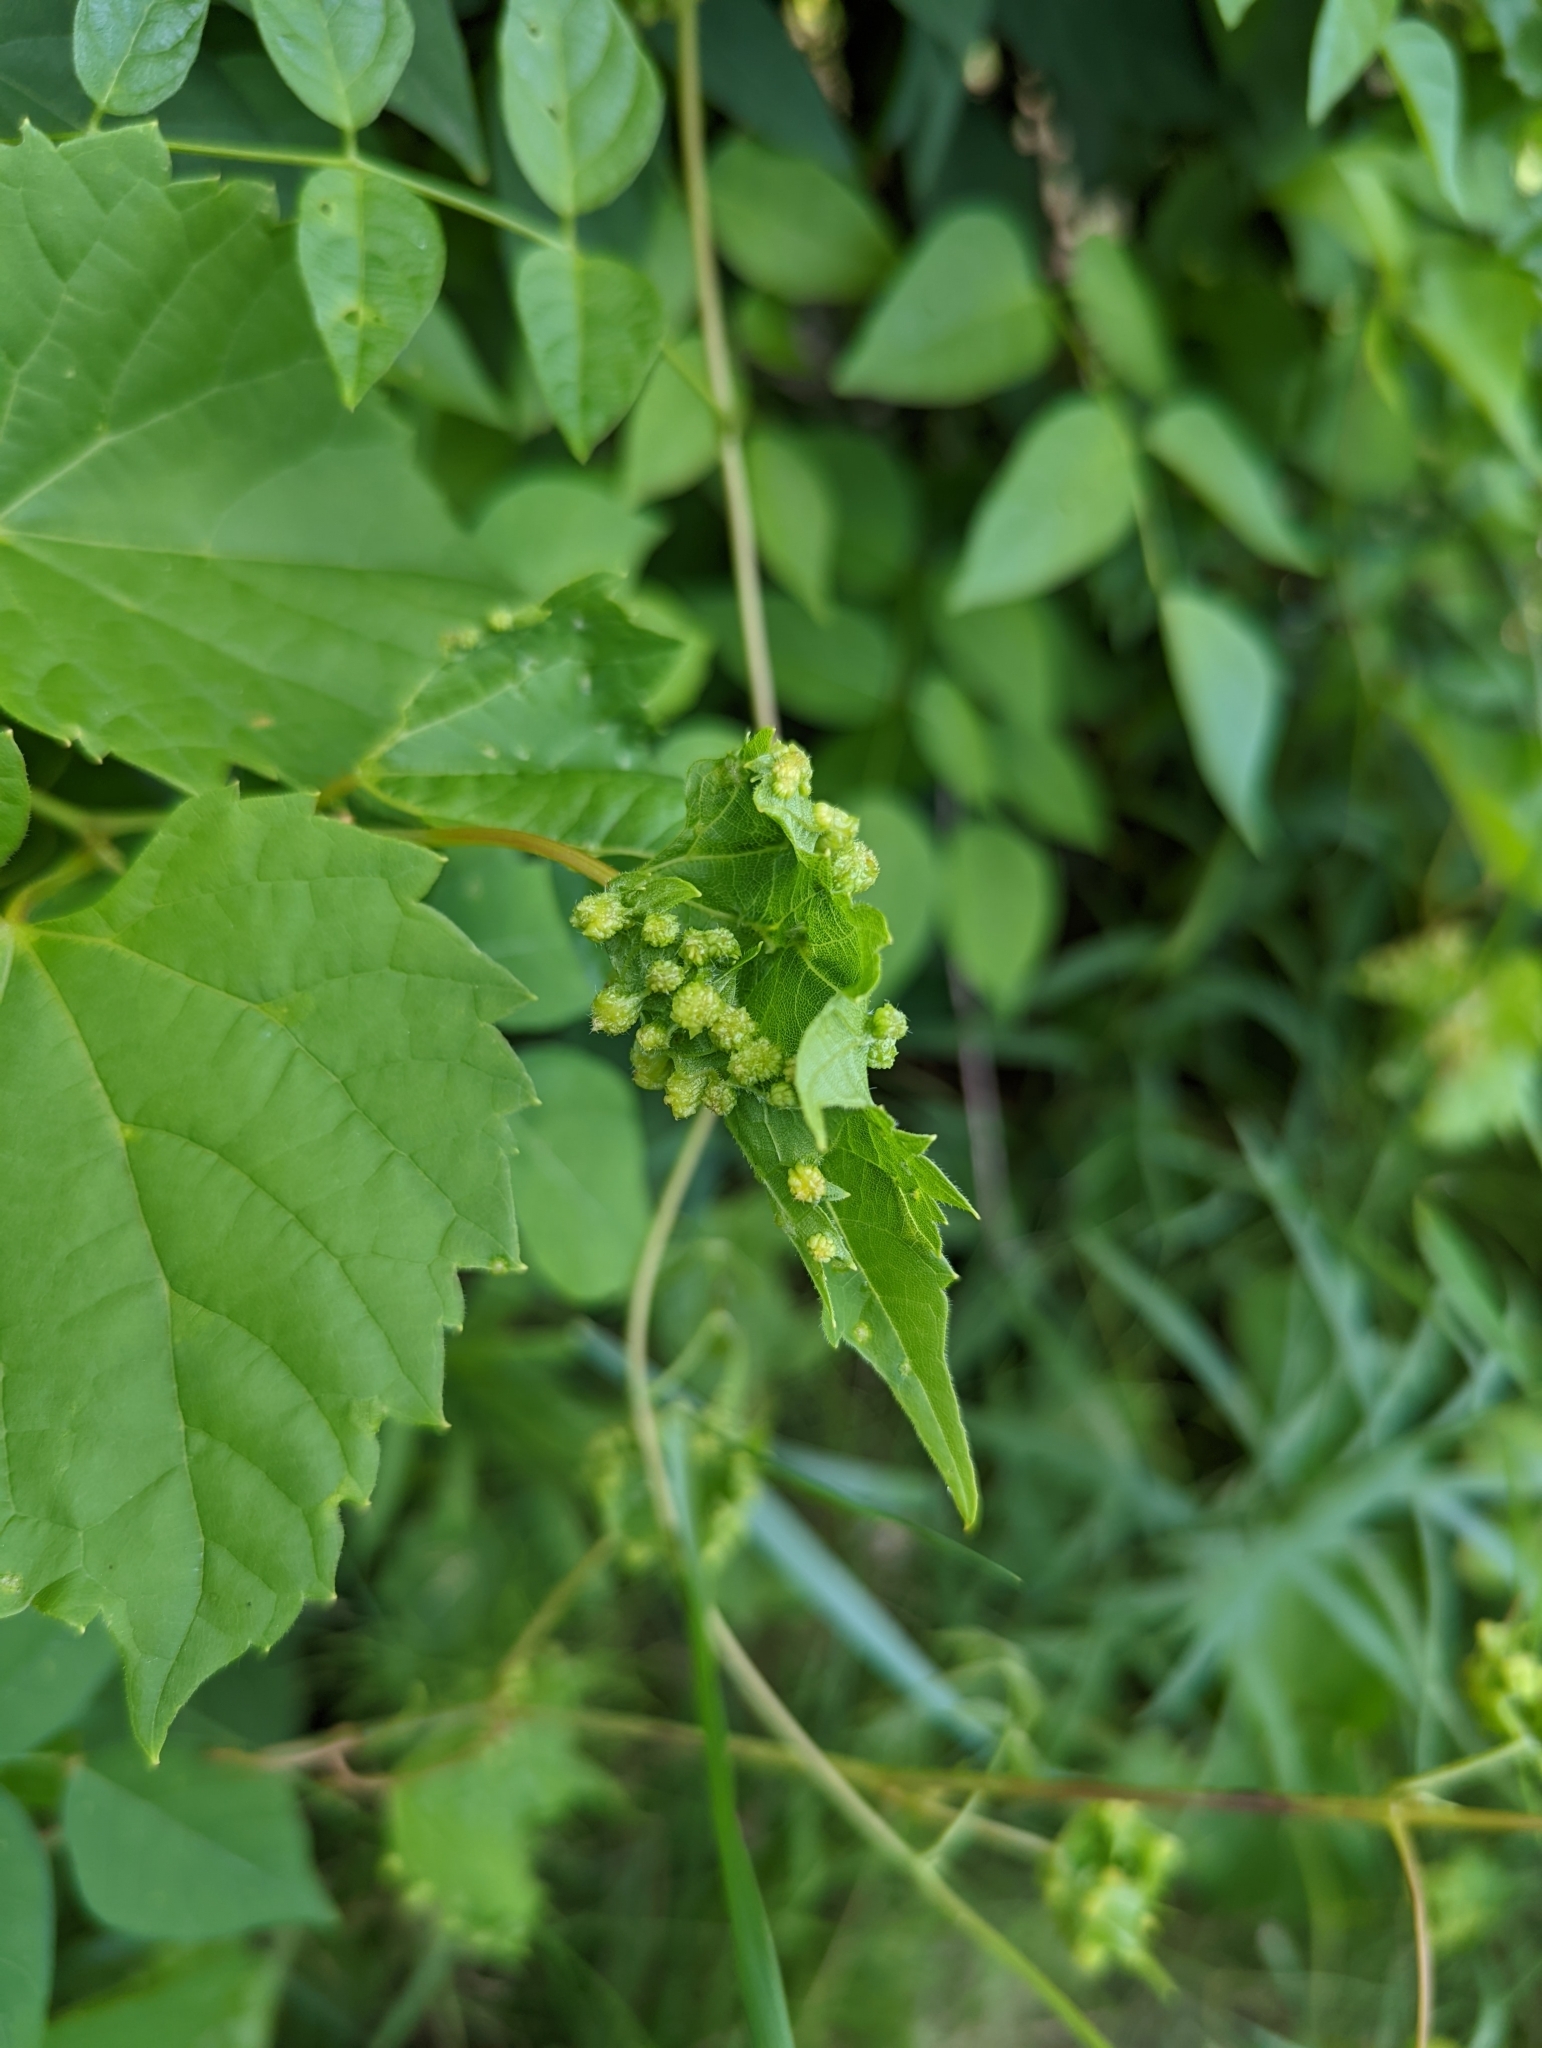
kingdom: Animalia
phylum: Arthropoda
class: Insecta
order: Hemiptera
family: Phylloxeridae
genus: Daktulosphaira
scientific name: Daktulosphaira vitifoliae
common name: Grape phylloxera
